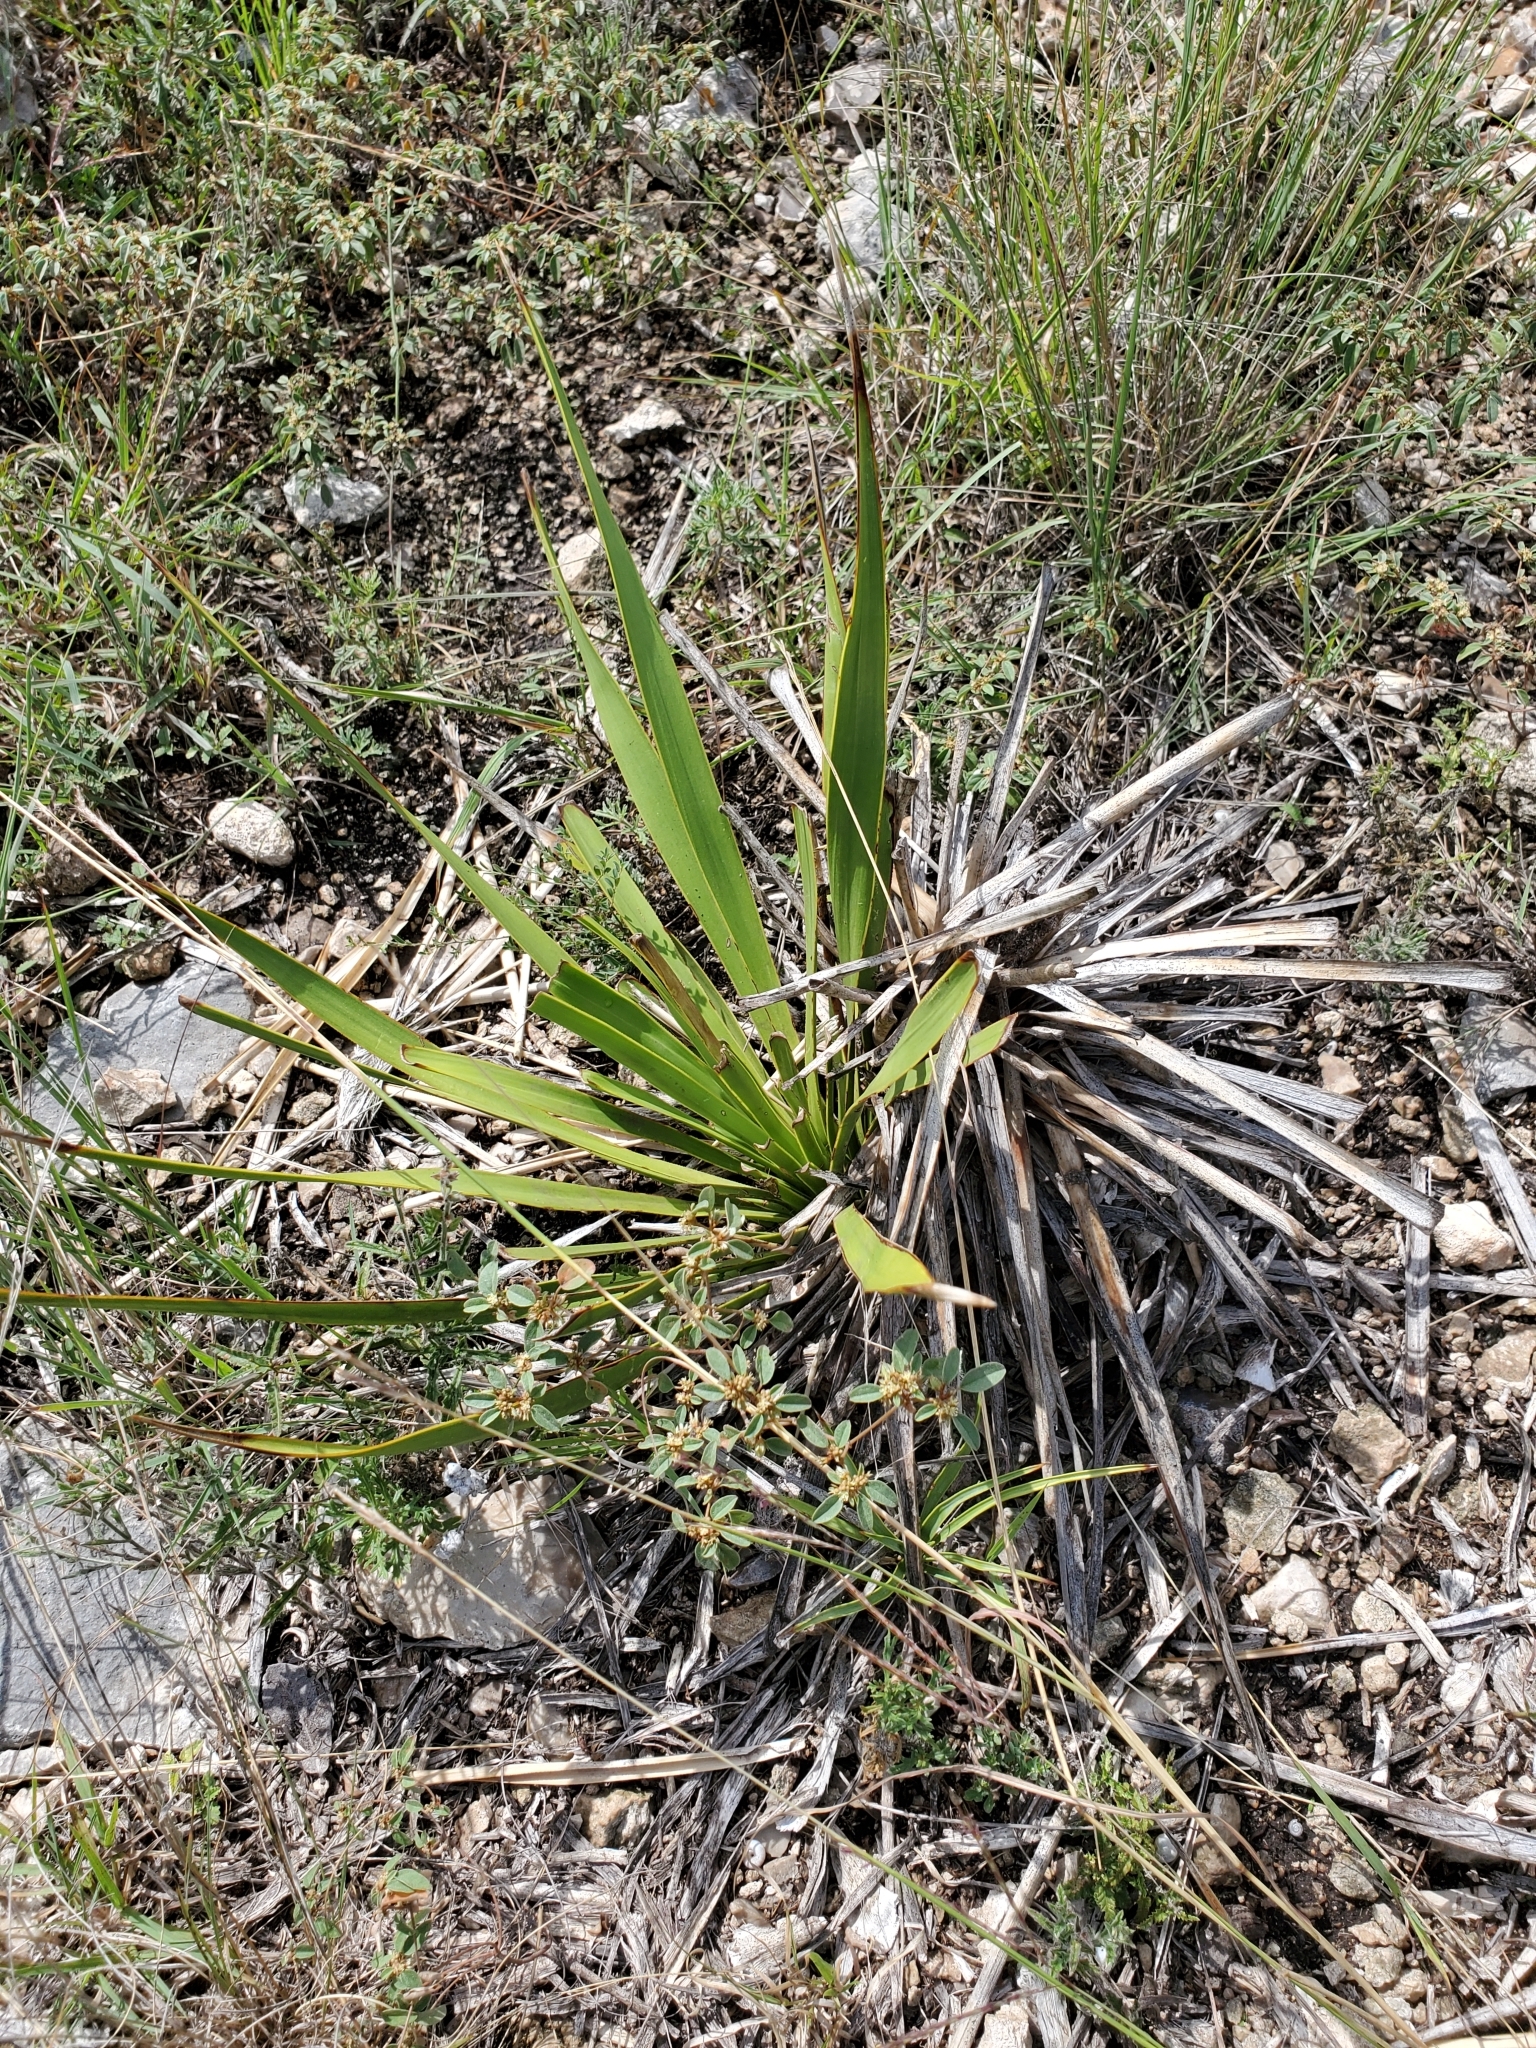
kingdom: Plantae
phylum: Tracheophyta
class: Liliopsida
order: Asparagales
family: Asparagaceae
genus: Yucca
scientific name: Yucca rupicola
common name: Twisted-leaf spanish-dagger
